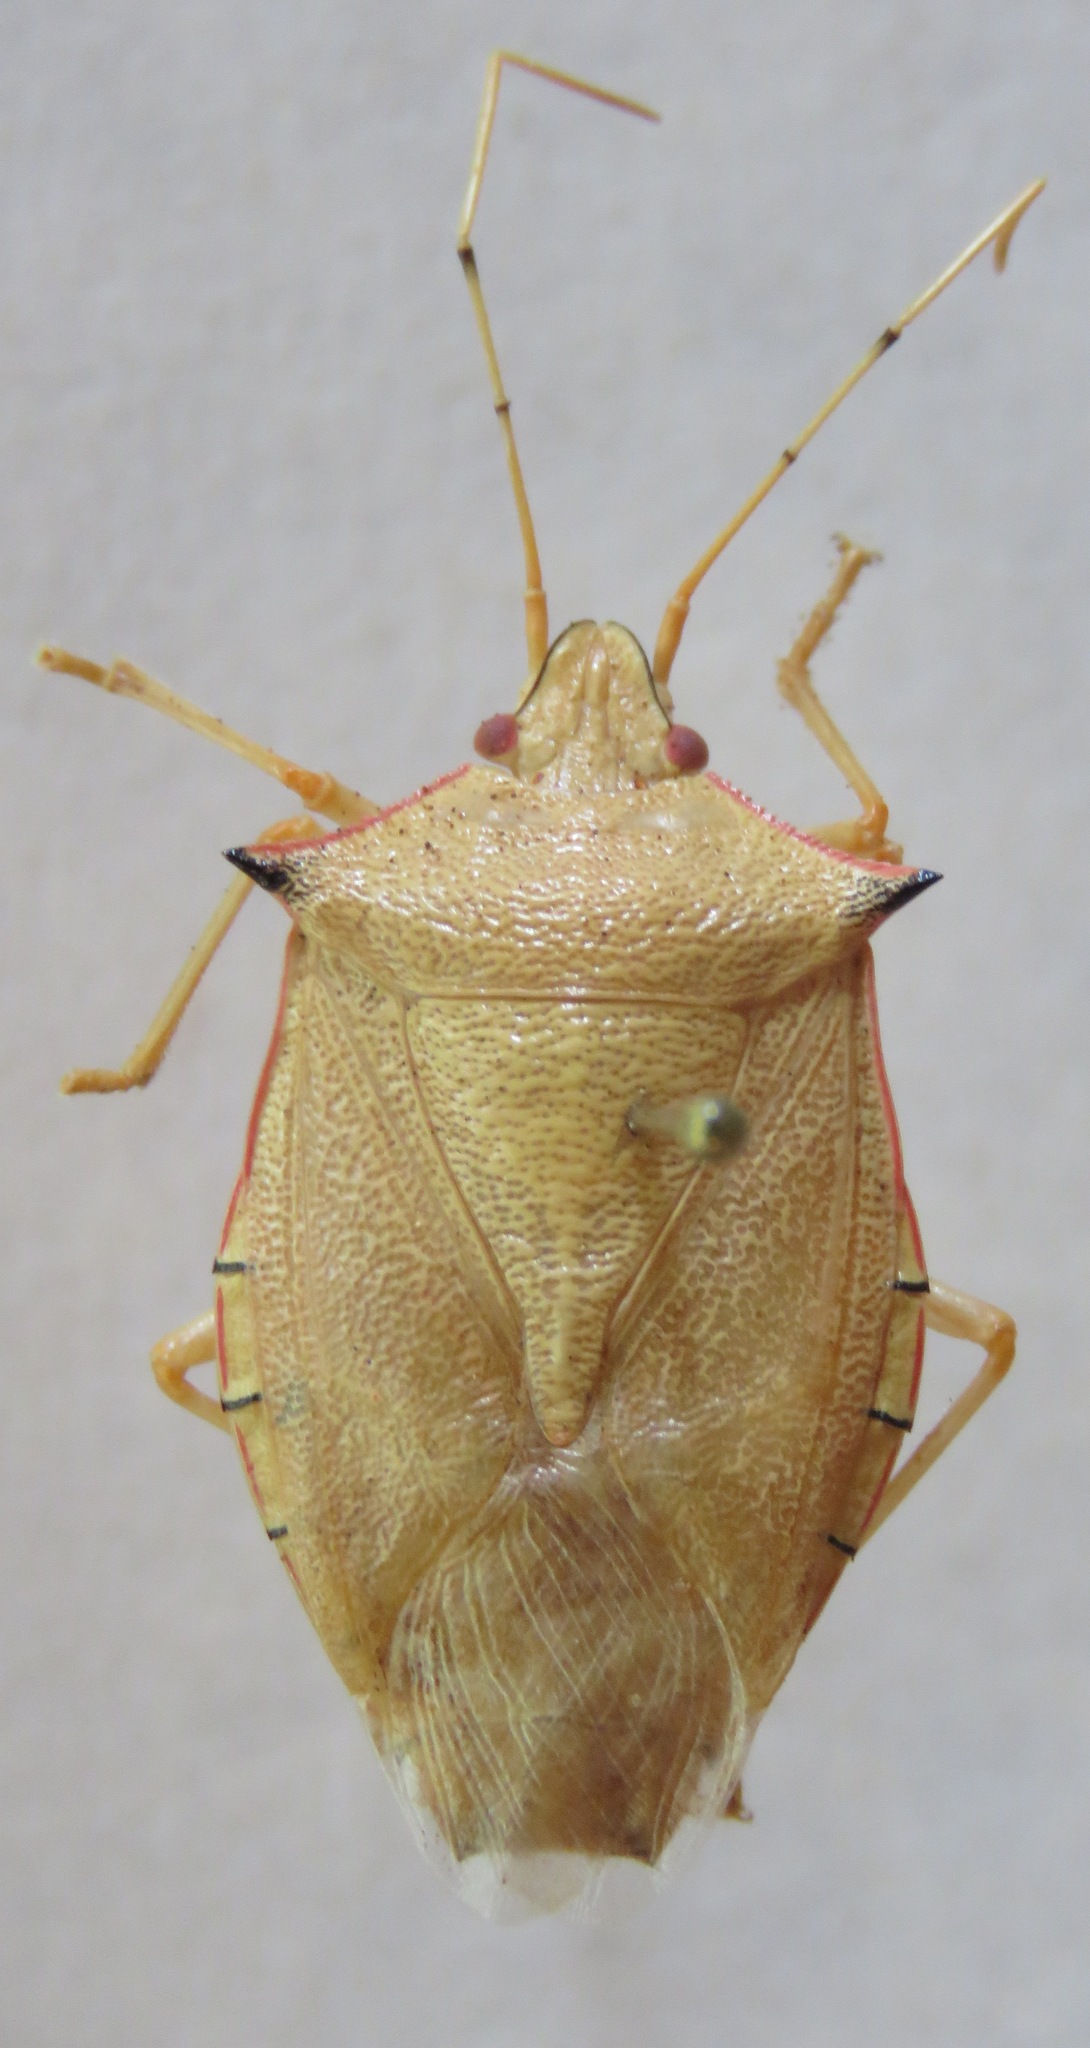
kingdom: Animalia
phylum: Arthropoda
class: Insecta
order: Hemiptera
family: Pentatomidae
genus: Chlorocoris
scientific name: Chlorocoris rufispinus
